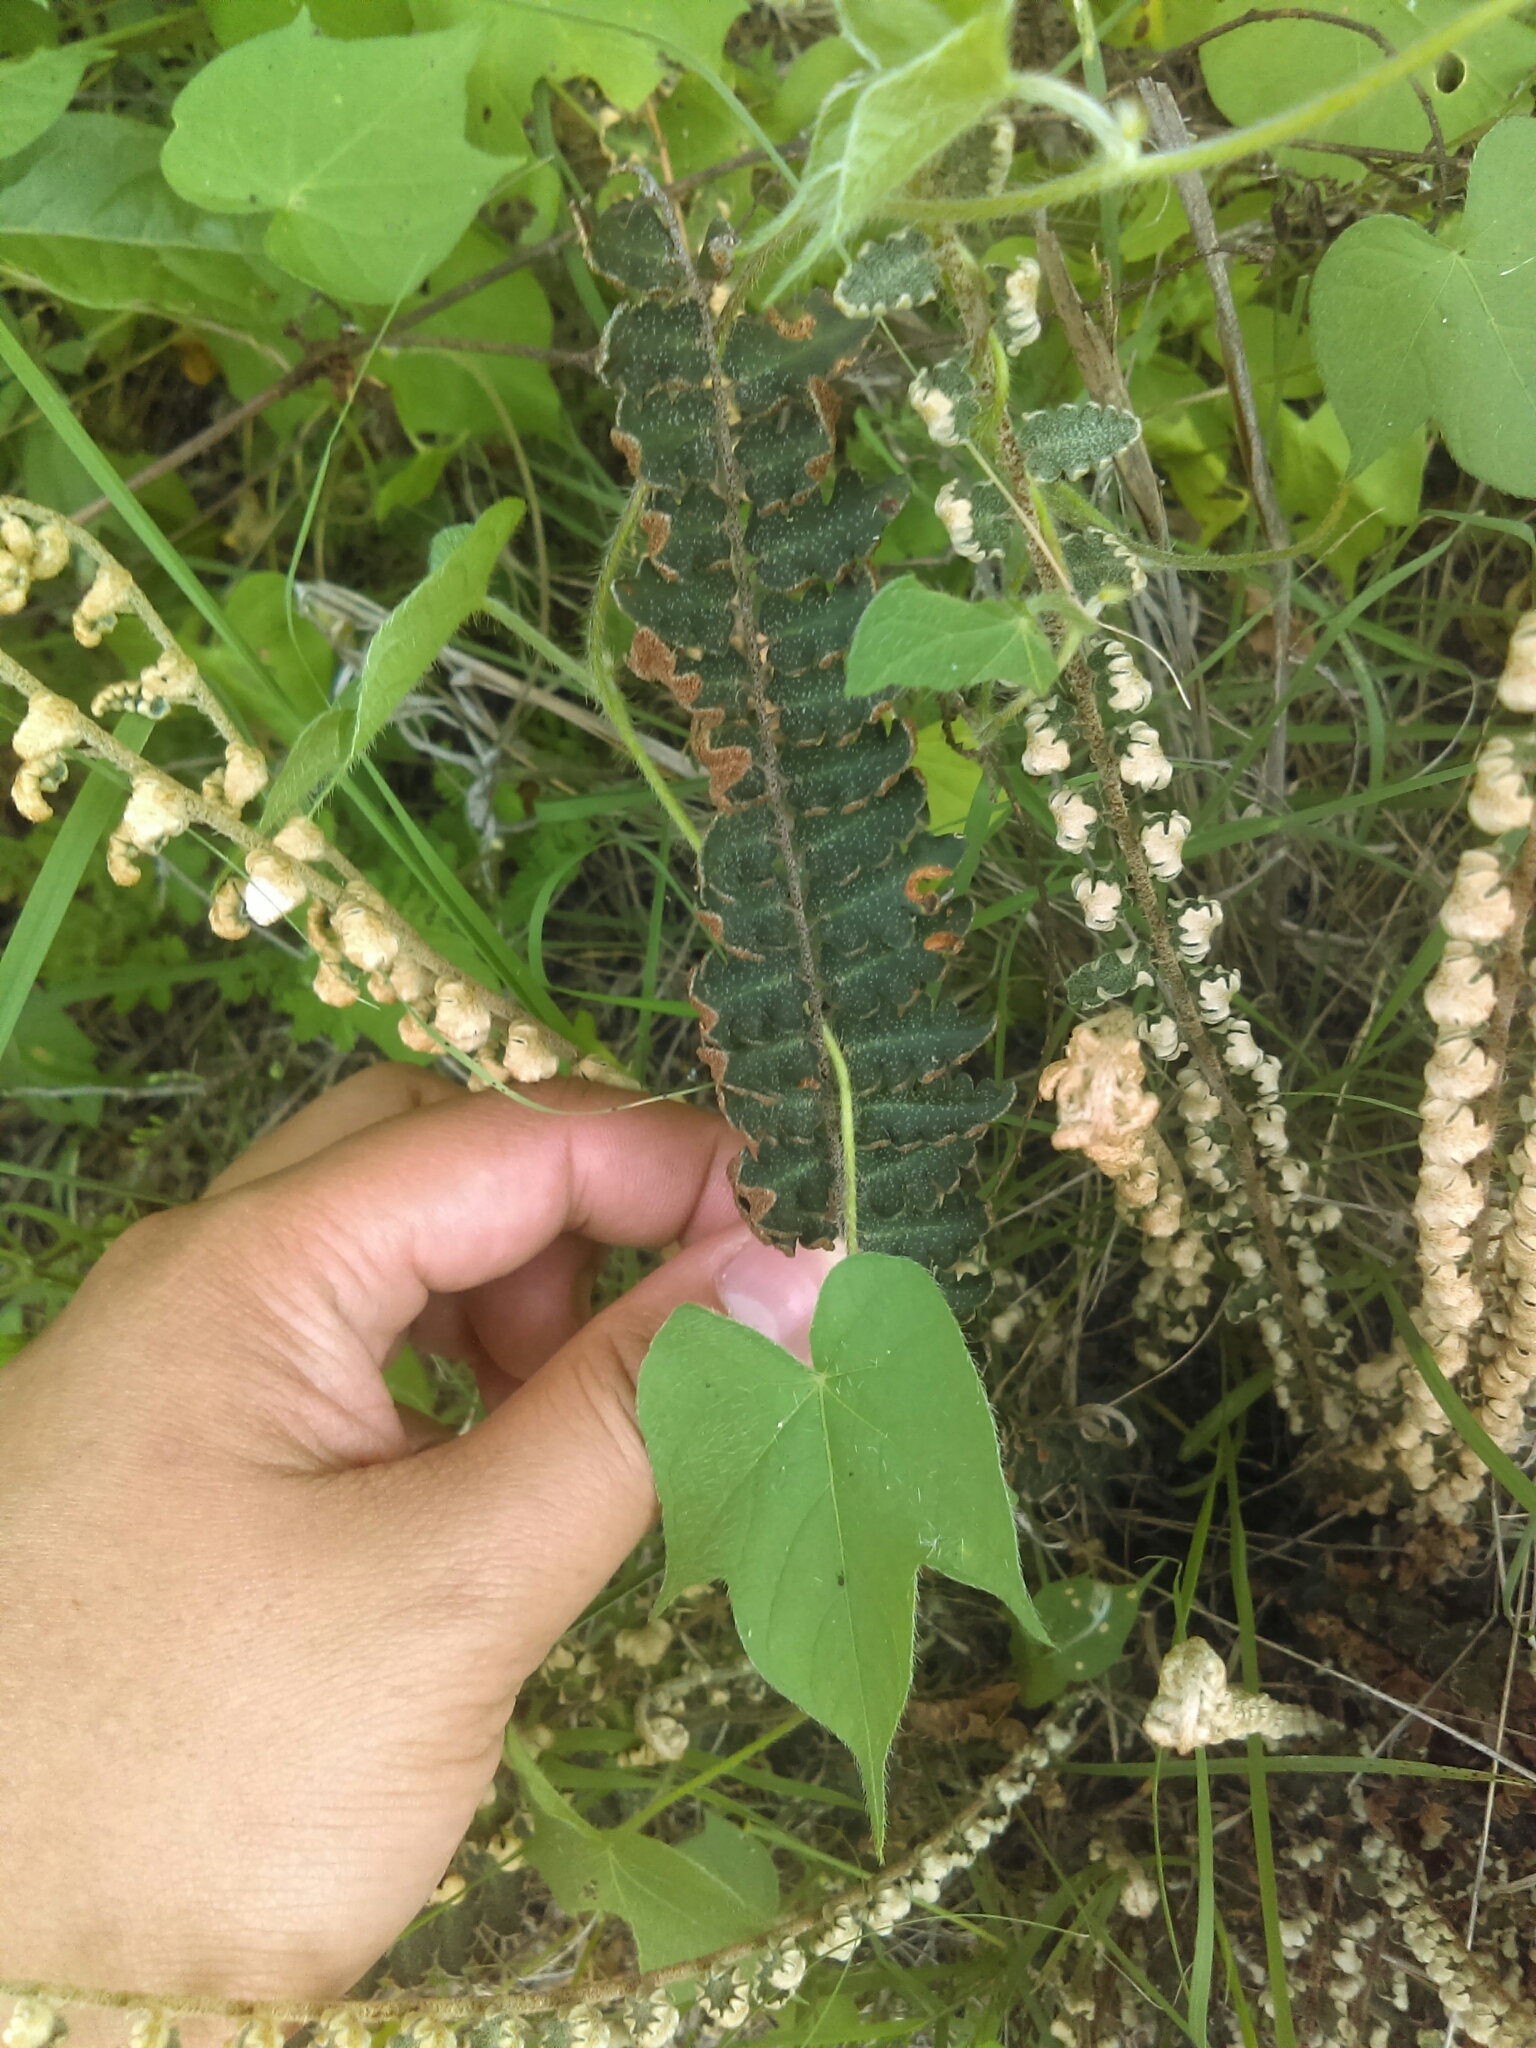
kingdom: Plantae
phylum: Tracheophyta
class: Polypodiopsida
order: Polypodiales
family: Pteridaceae
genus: Astrolepis
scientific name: Astrolepis crassifolia
